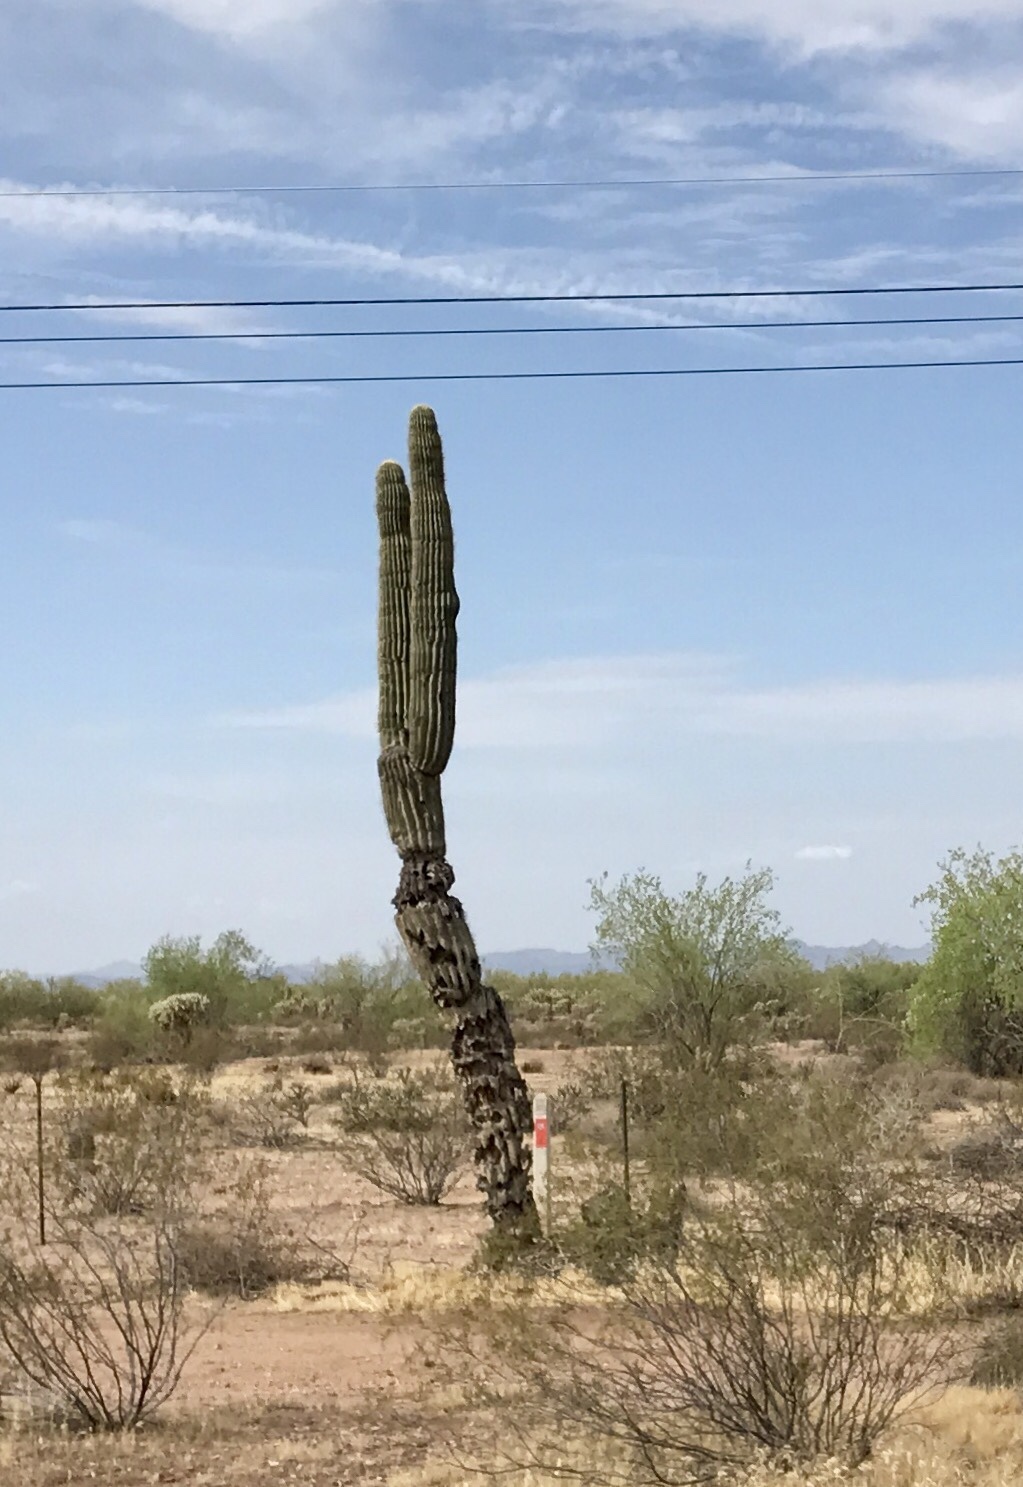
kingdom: Plantae
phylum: Tracheophyta
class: Magnoliopsida
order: Caryophyllales
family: Cactaceae
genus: Carnegiea
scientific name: Carnegiea gigantea
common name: Saguaro
